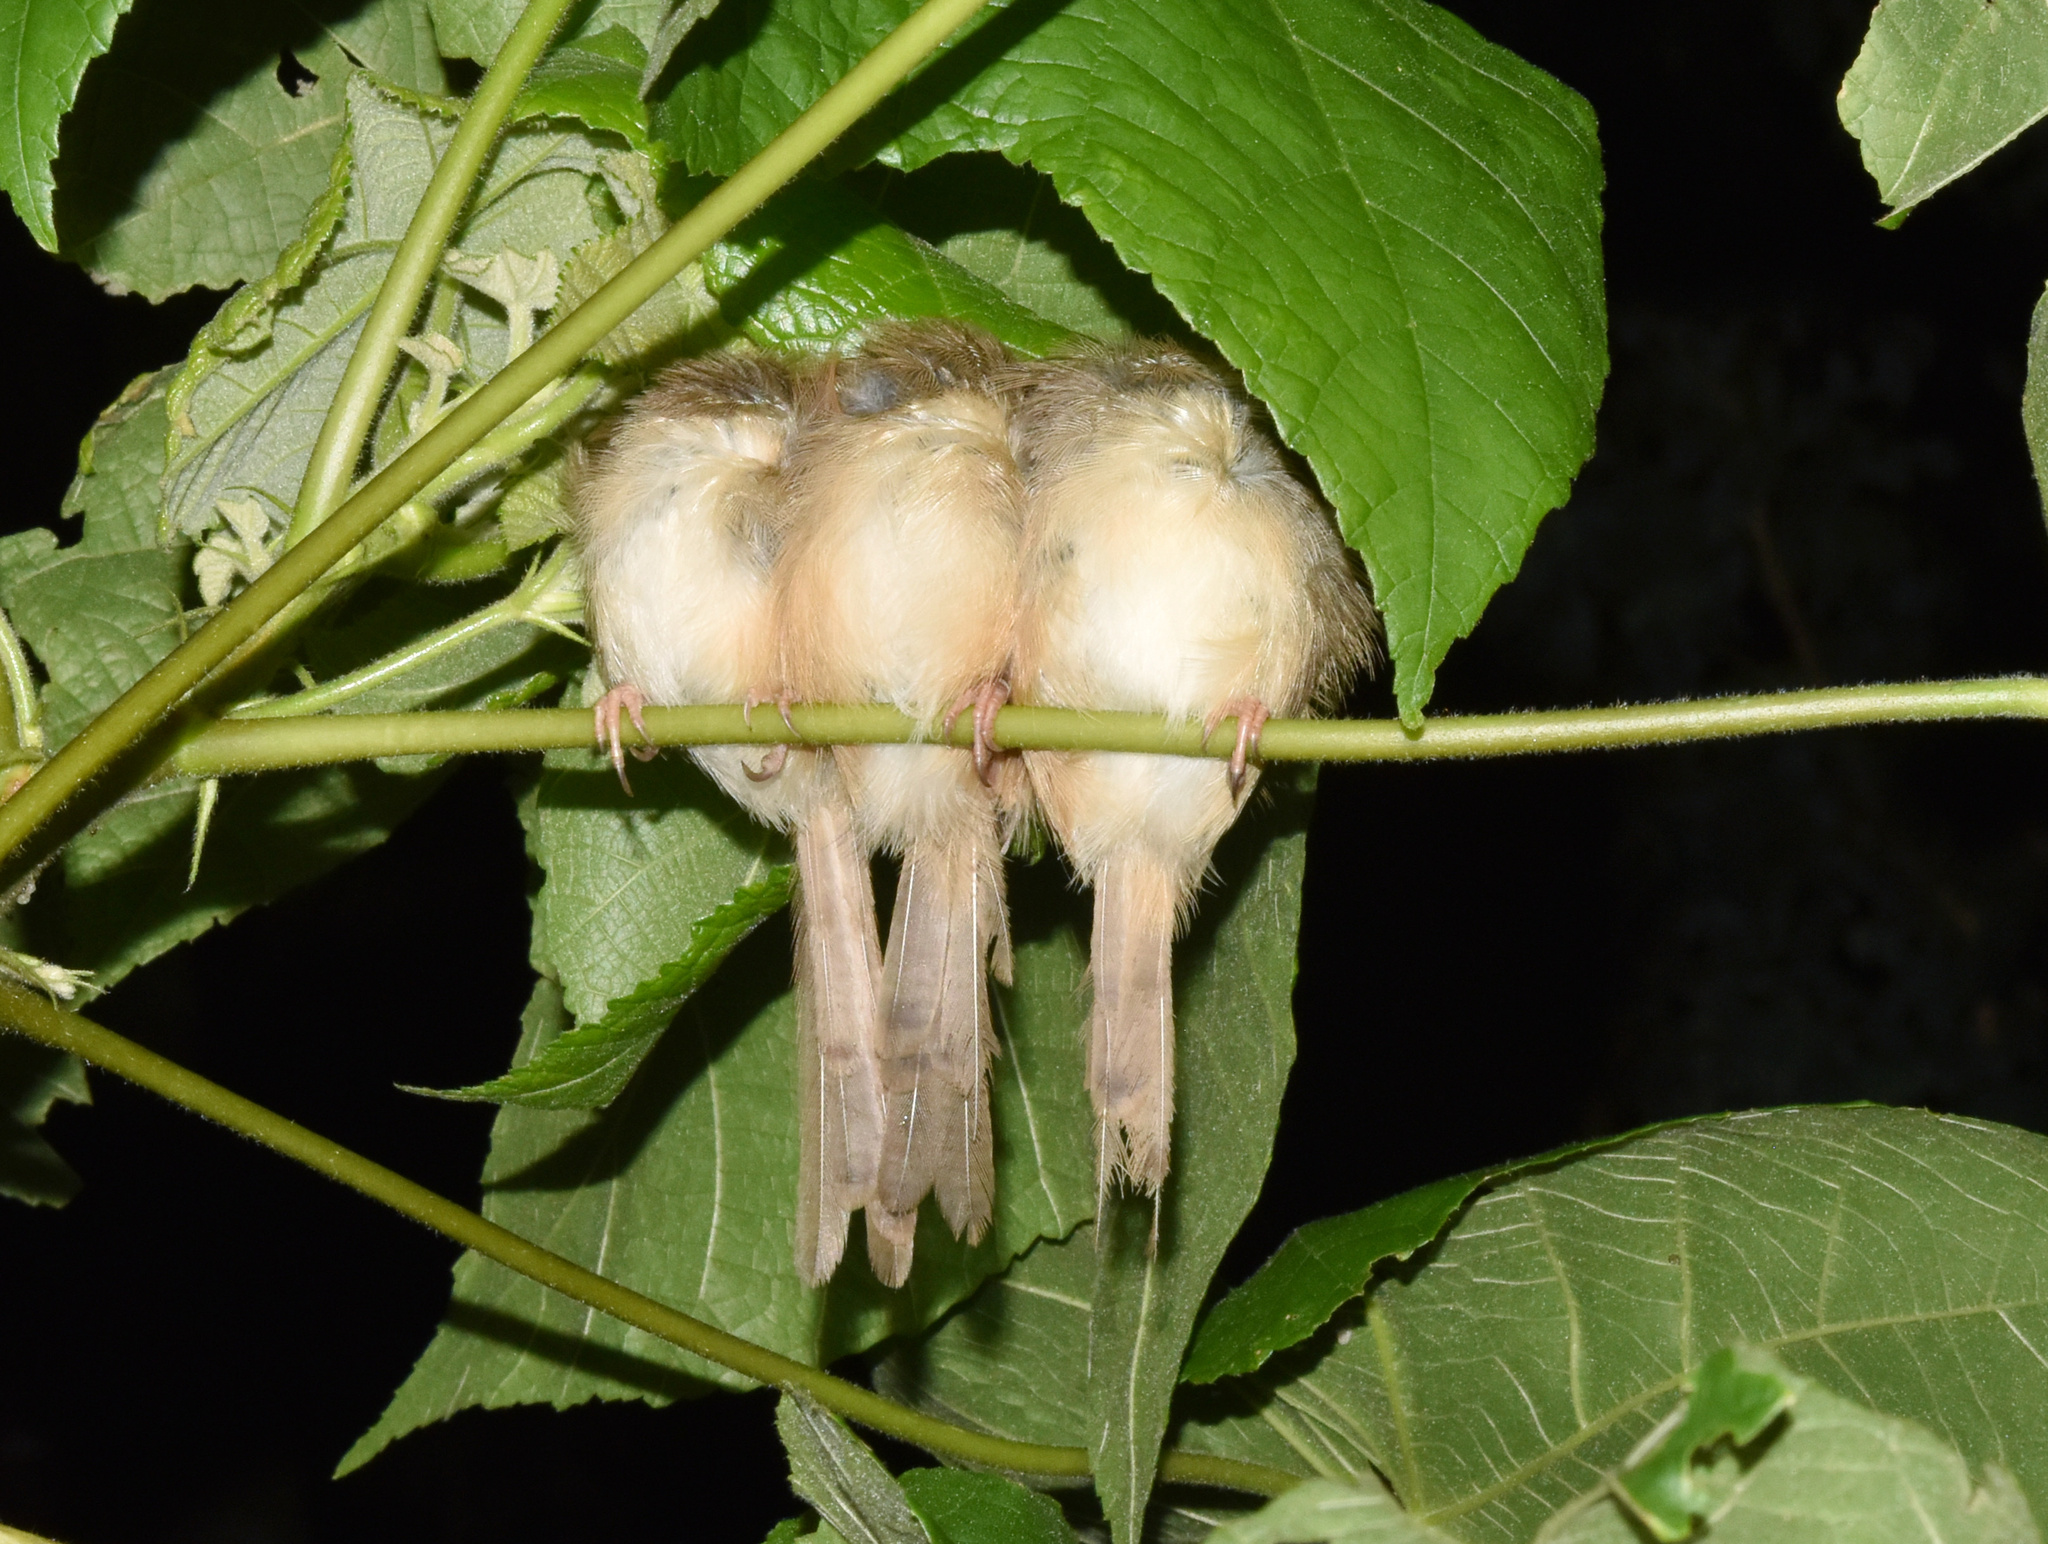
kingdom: Animalia
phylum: Chordata
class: Aves
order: Passeriformes
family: Cisticolidae
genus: Prinia
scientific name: Prinia subflava
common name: Tawny-flanked prinia
